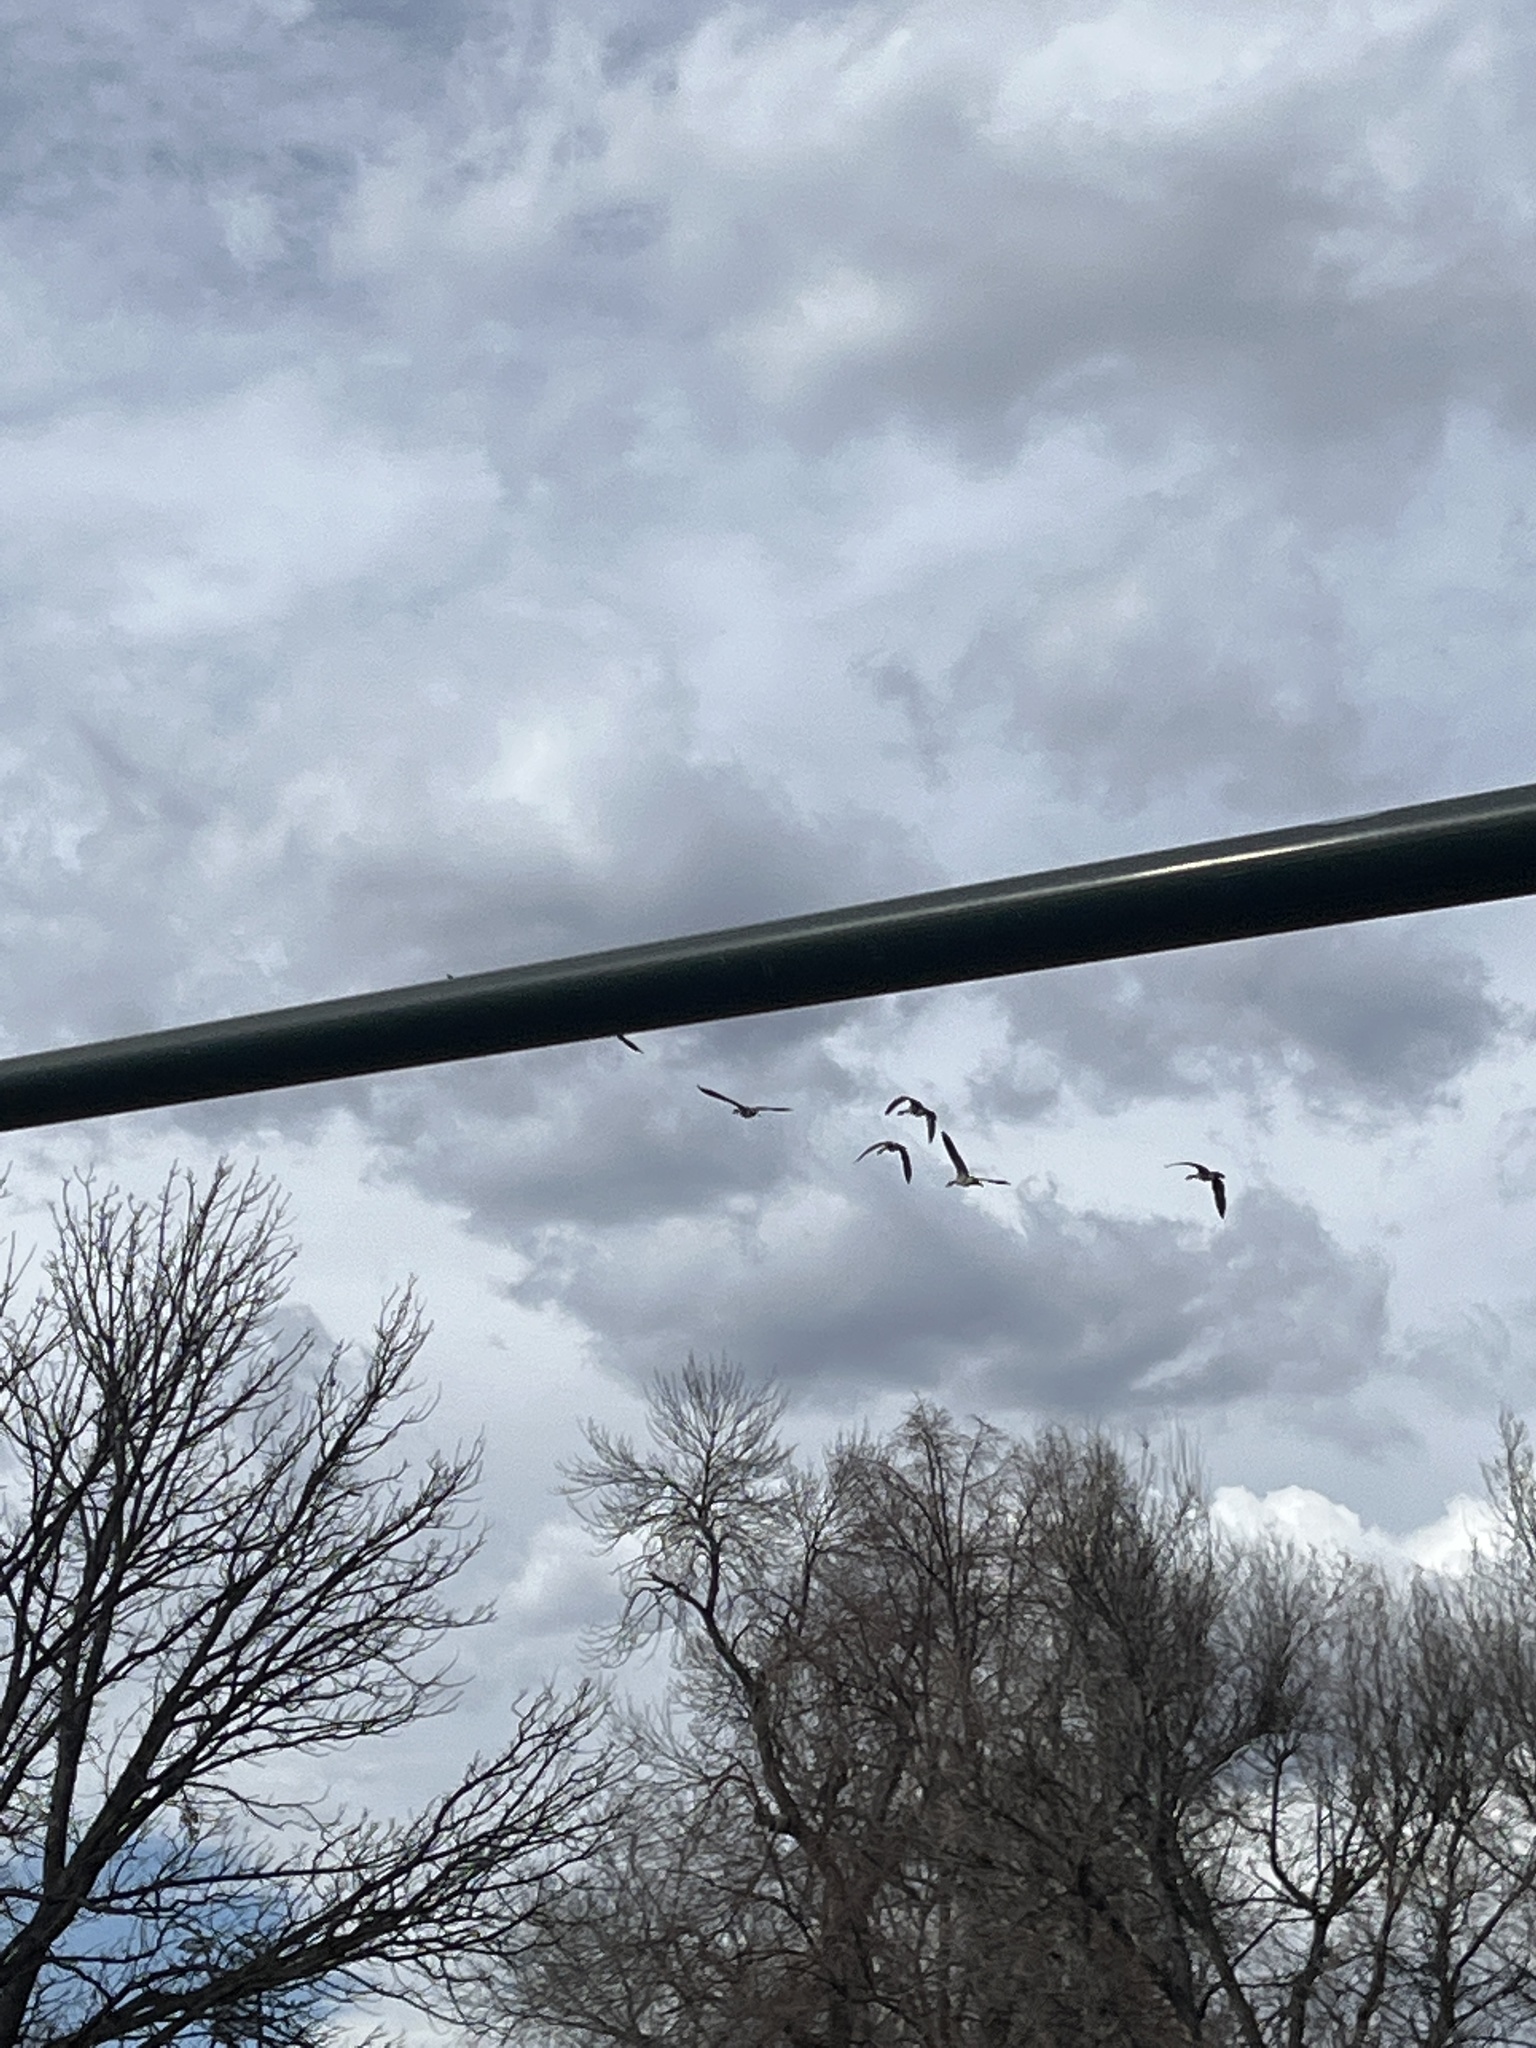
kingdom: Animalia
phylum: Chordata
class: Aves
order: Anseriformes
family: Anatidae
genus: Branta
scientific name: Branta canadensis
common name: Canada goose
